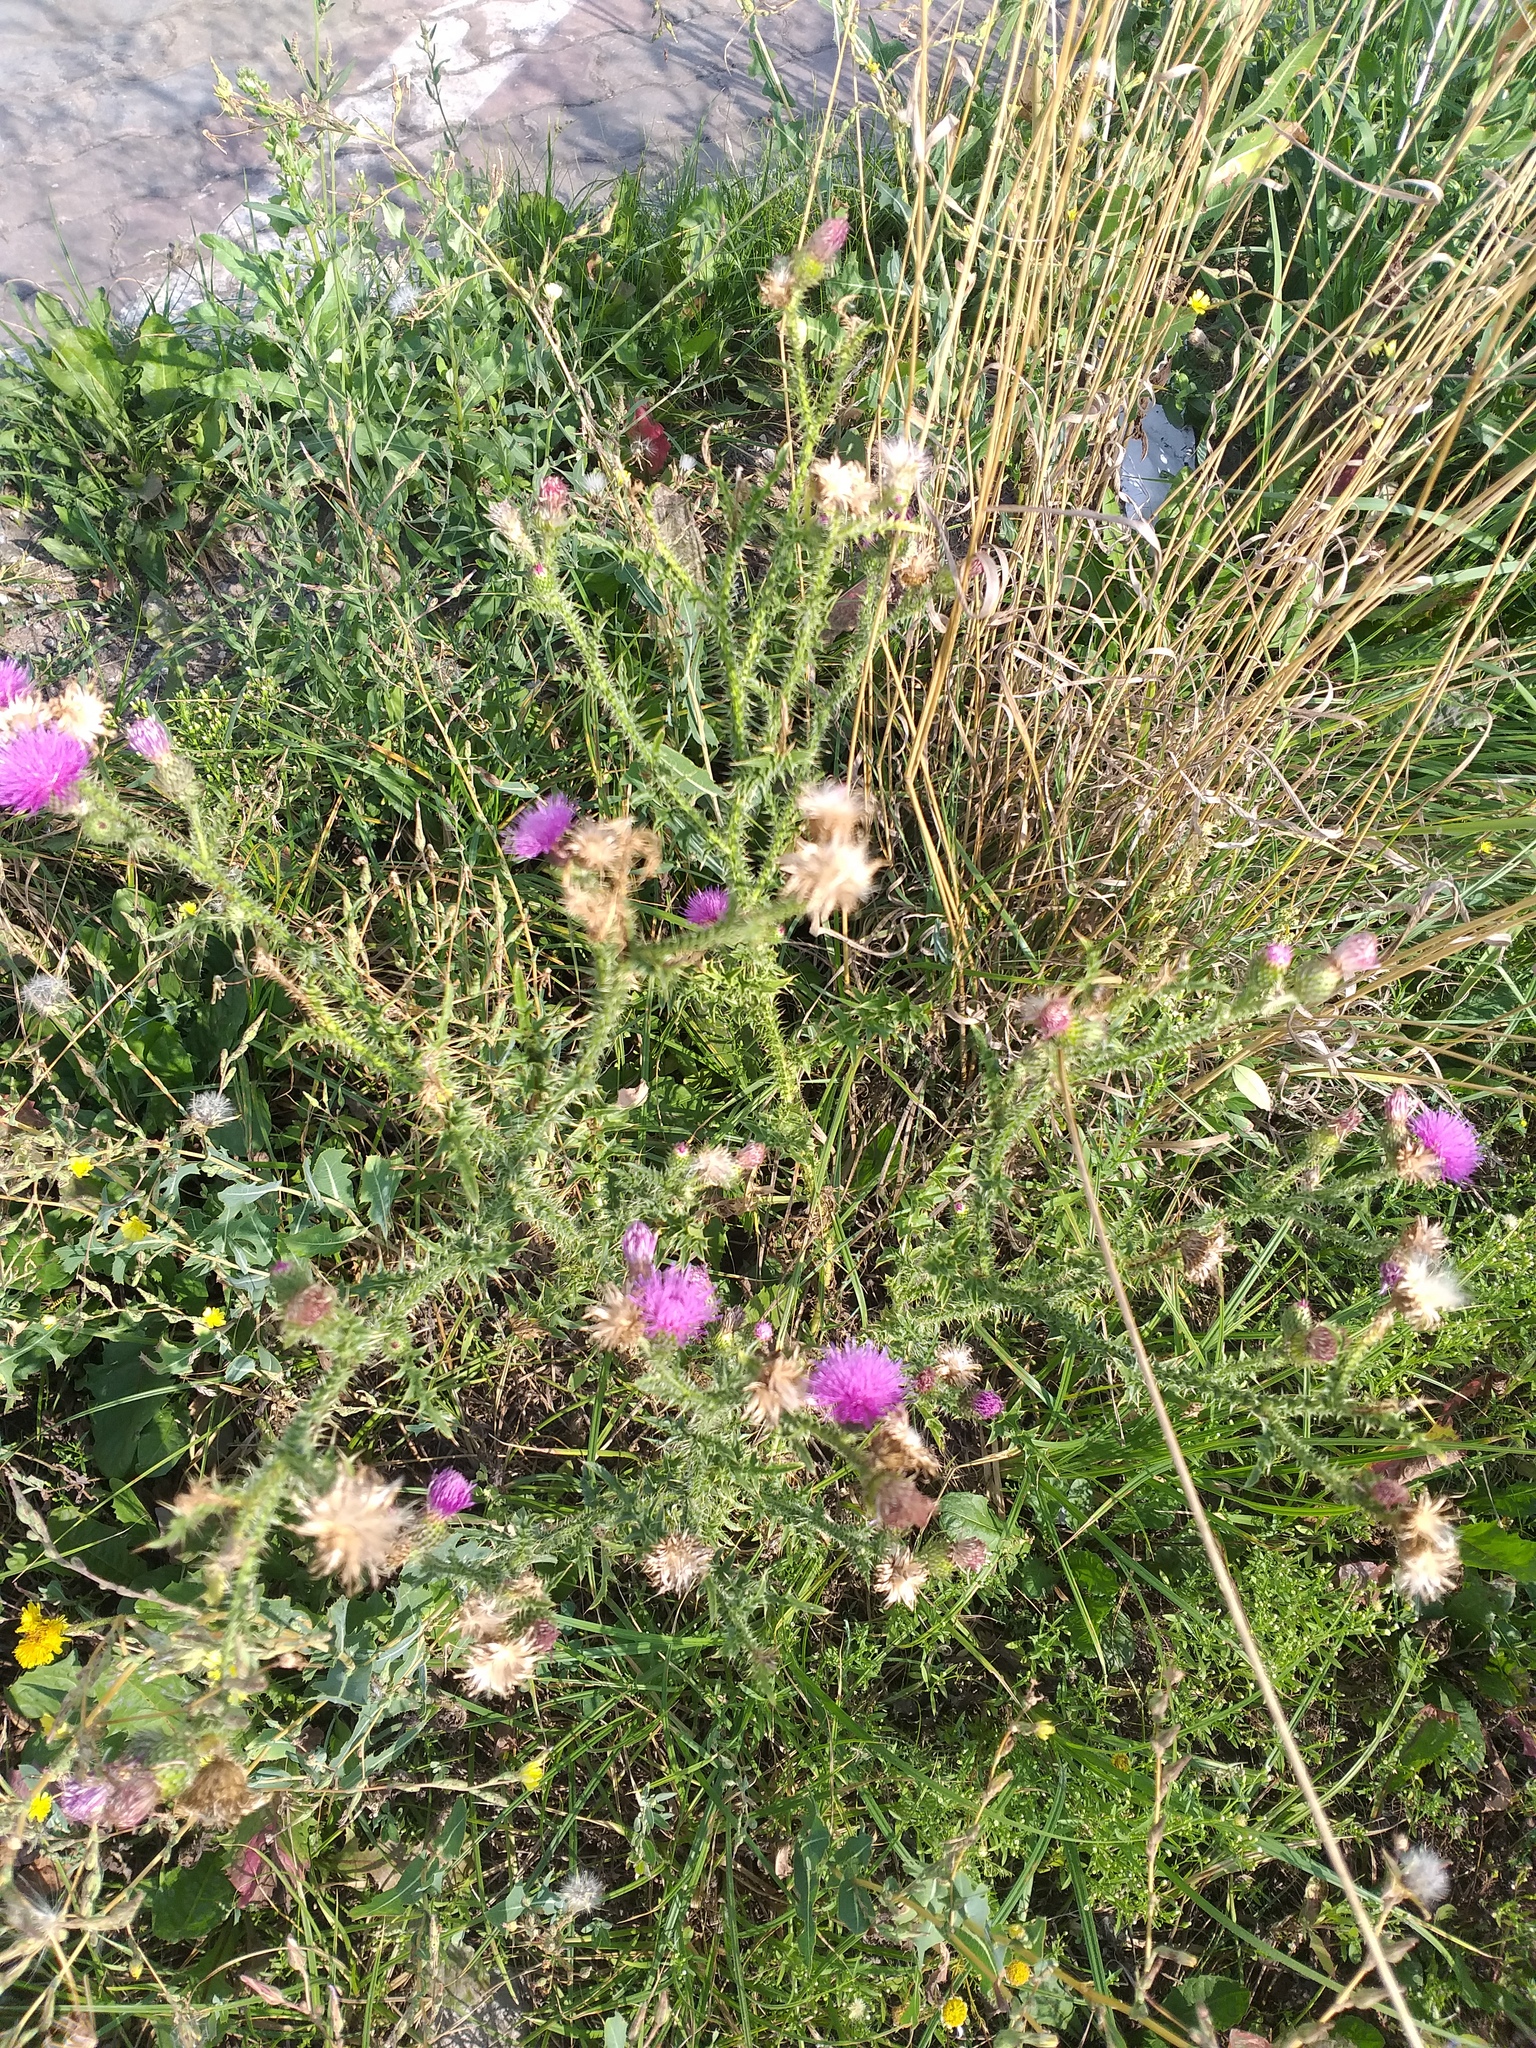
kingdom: Plantae
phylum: Tracheophyta
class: Magnoliopsida
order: Asterales
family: Asteraceae
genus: Carduus
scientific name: Carduus acanthoides
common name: Plumeless thistle
